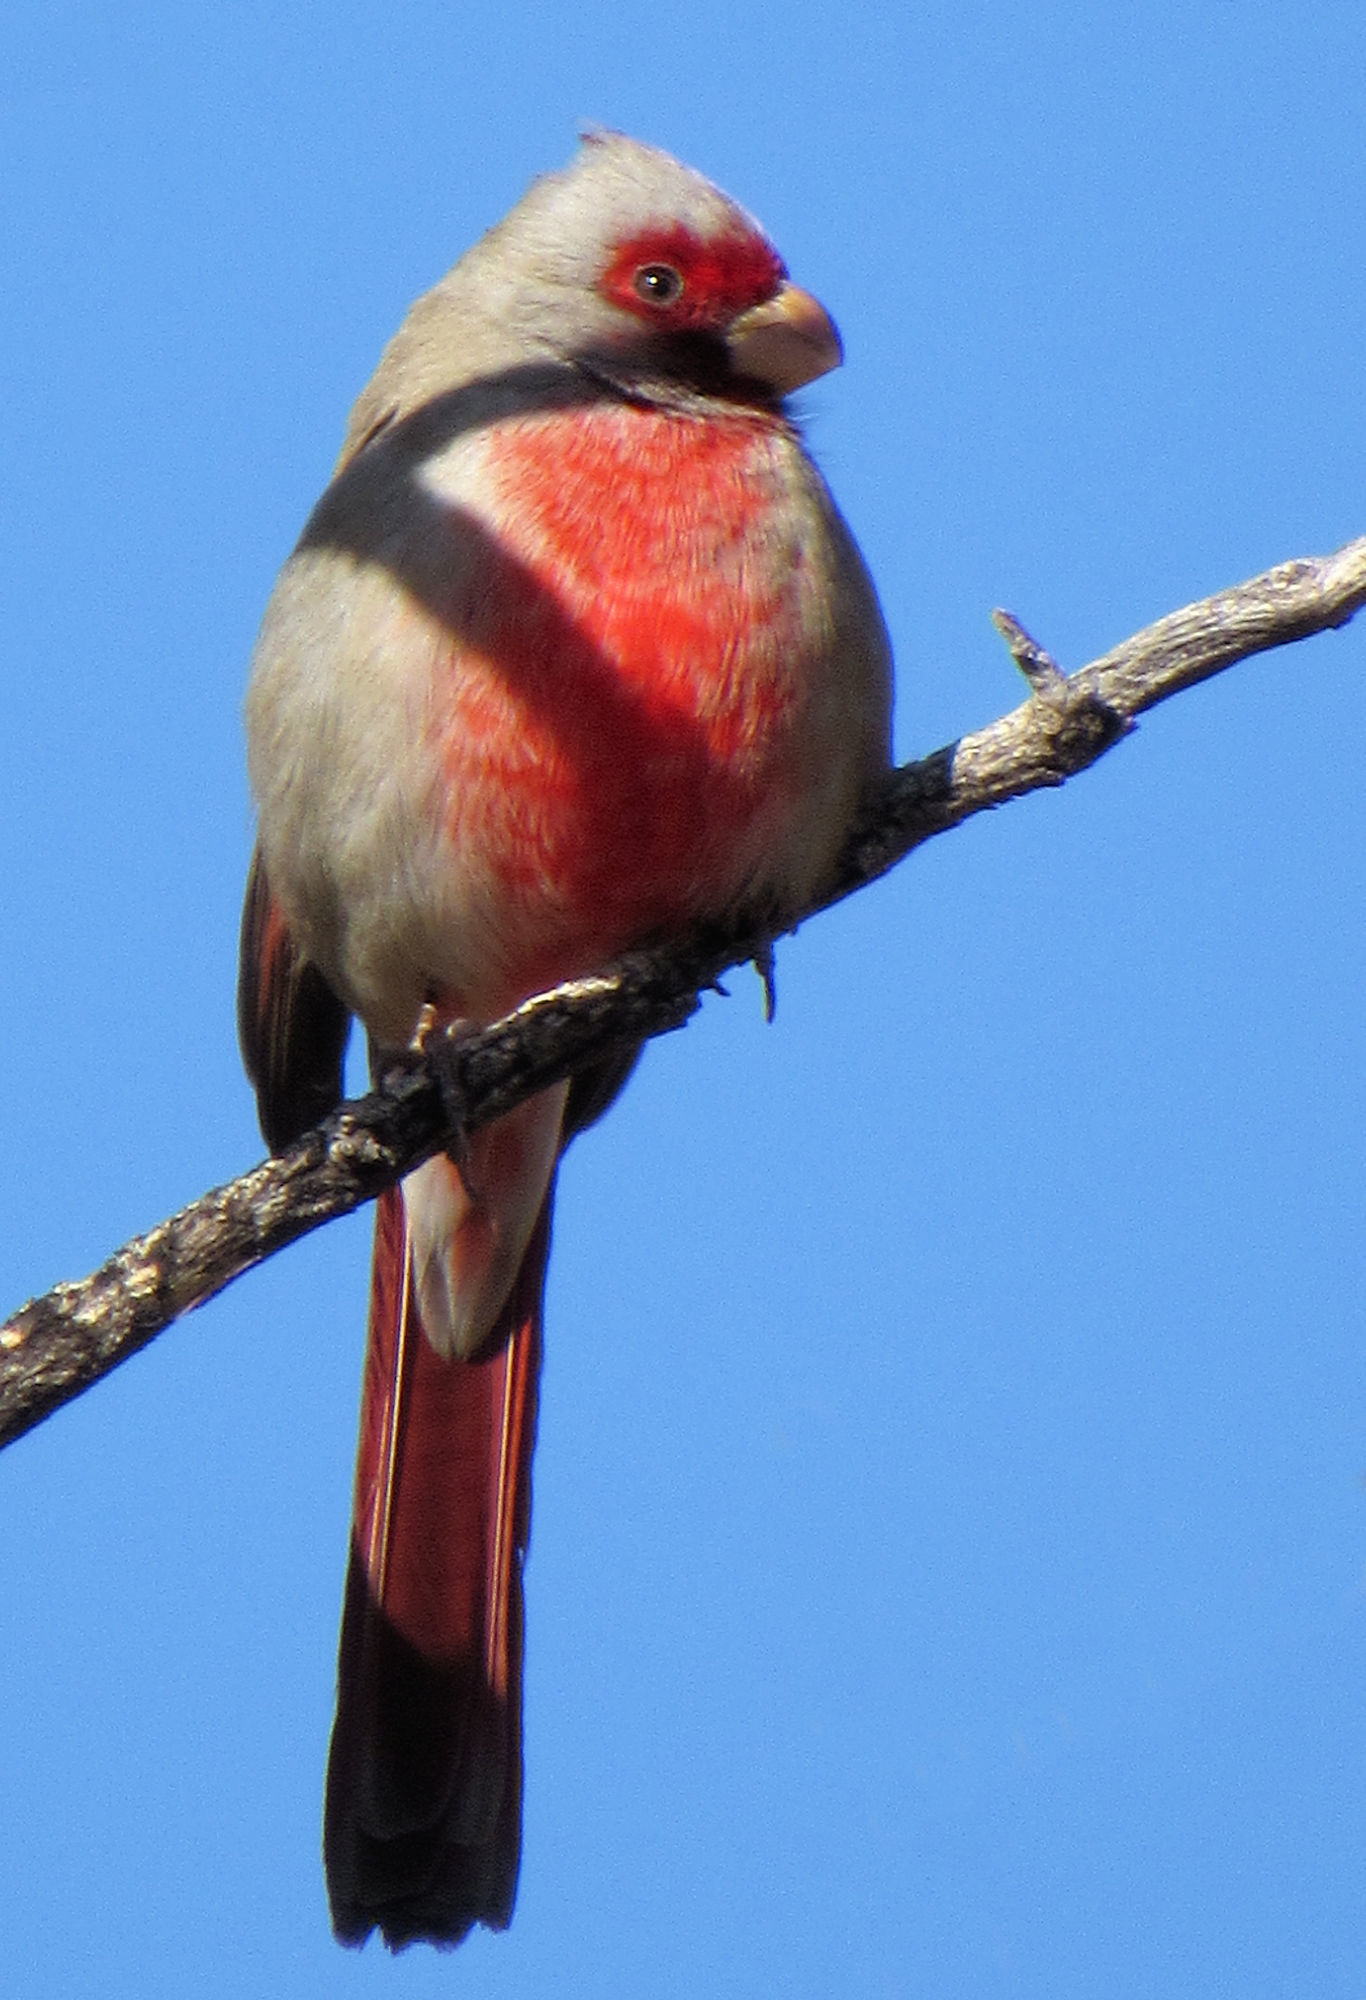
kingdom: Animalia
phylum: Chordata
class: Aves
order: Passeriformes
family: Cardinalidae
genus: Cardinalis
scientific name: Cardinalis sinuatus
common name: Pyrrhuloxia
